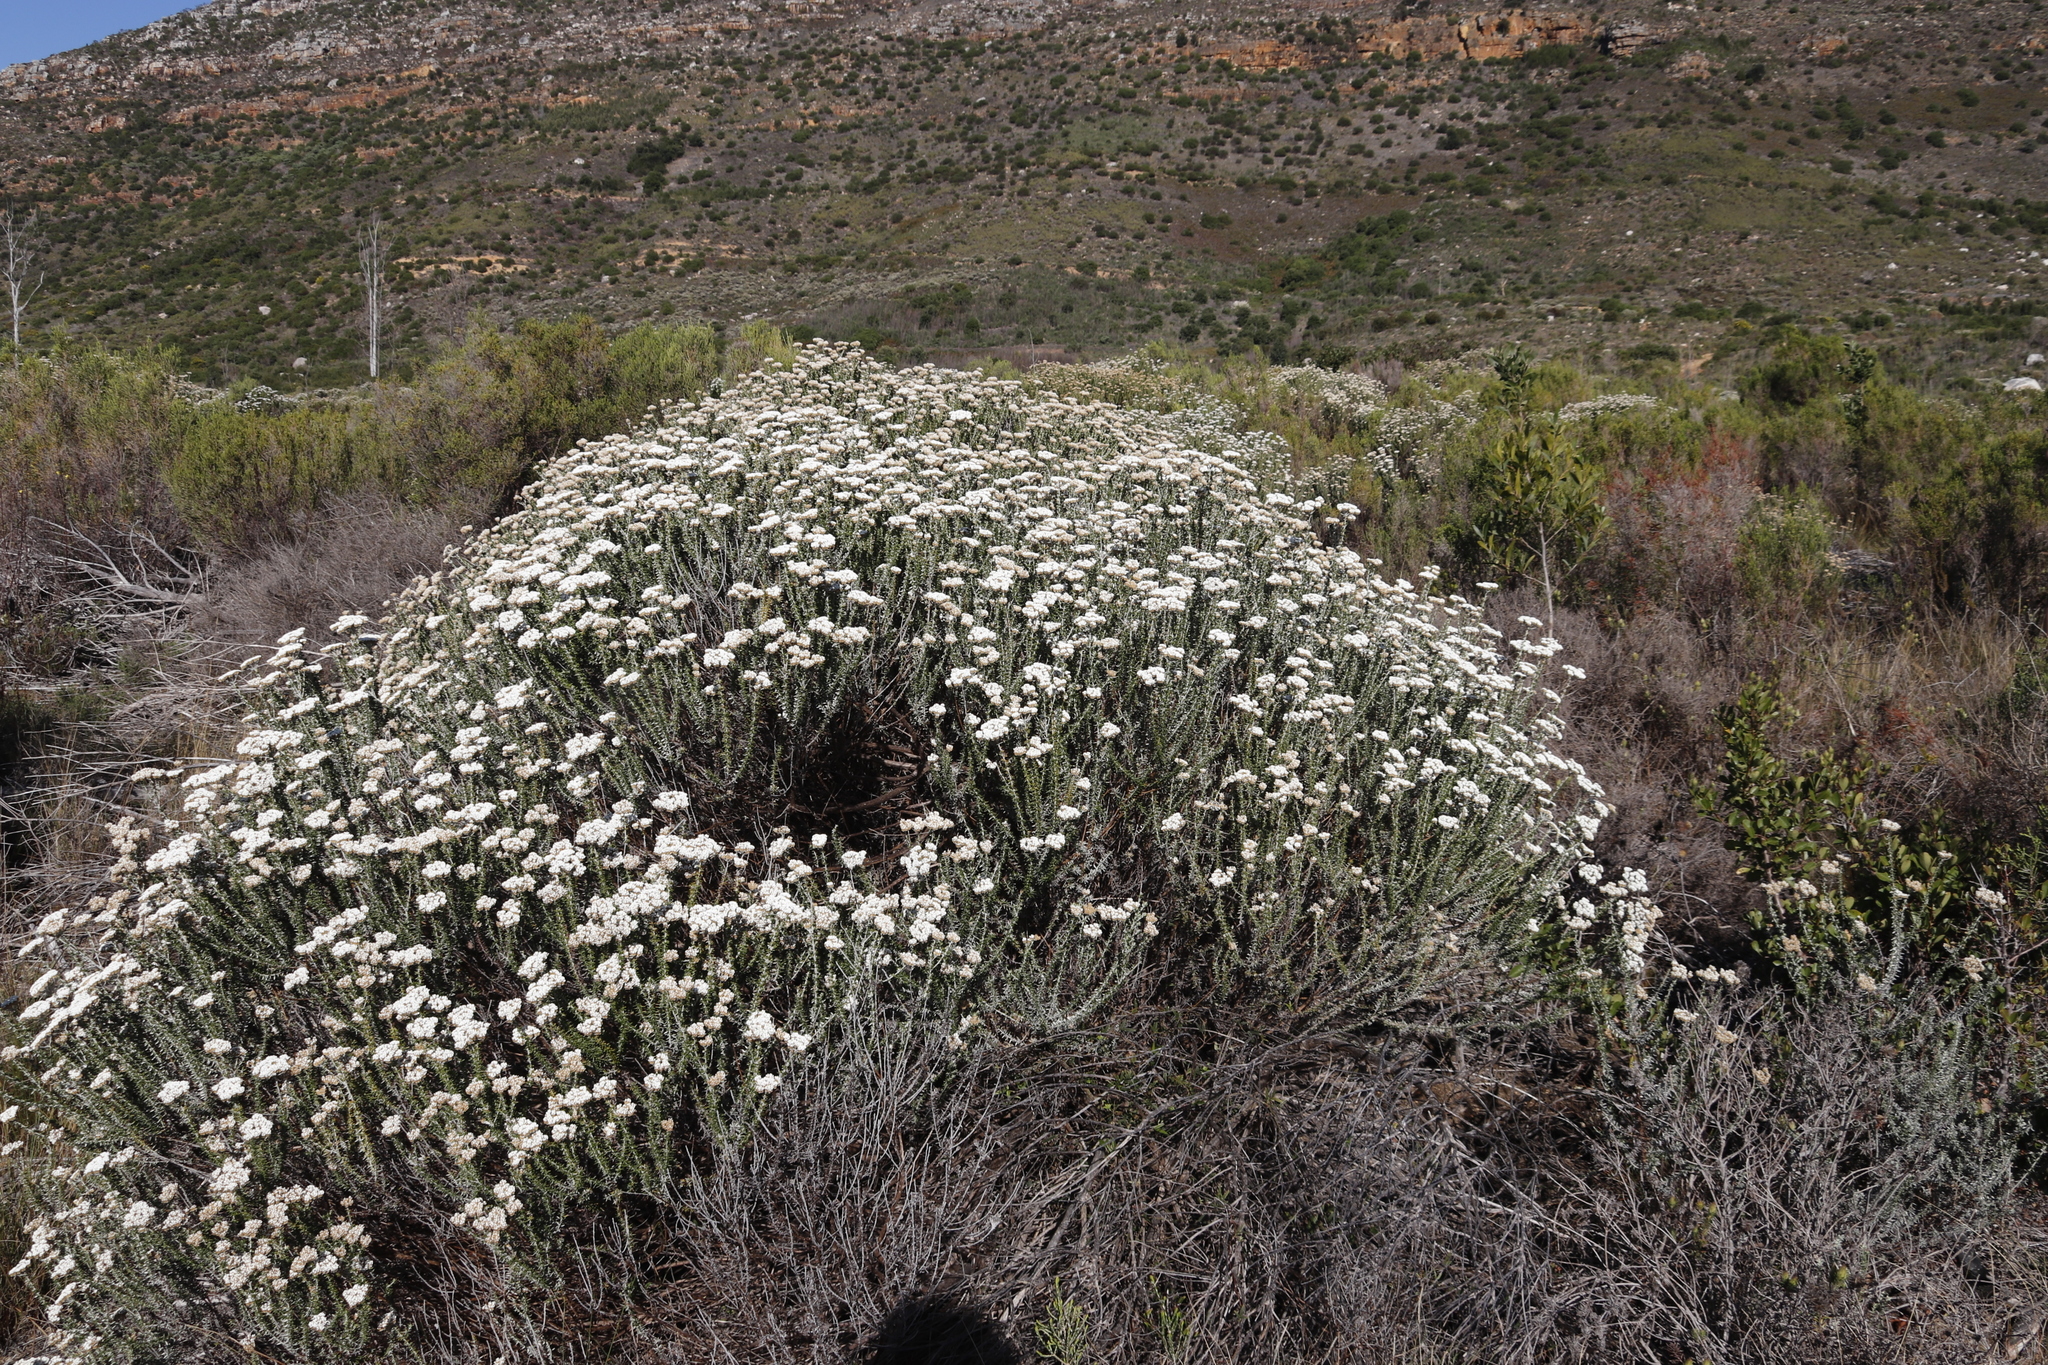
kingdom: Plantae
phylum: Tracheophyta
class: Magnoliopsida
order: Asterales
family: Asteraceae
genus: Metalasia
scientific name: Metalasia densa
